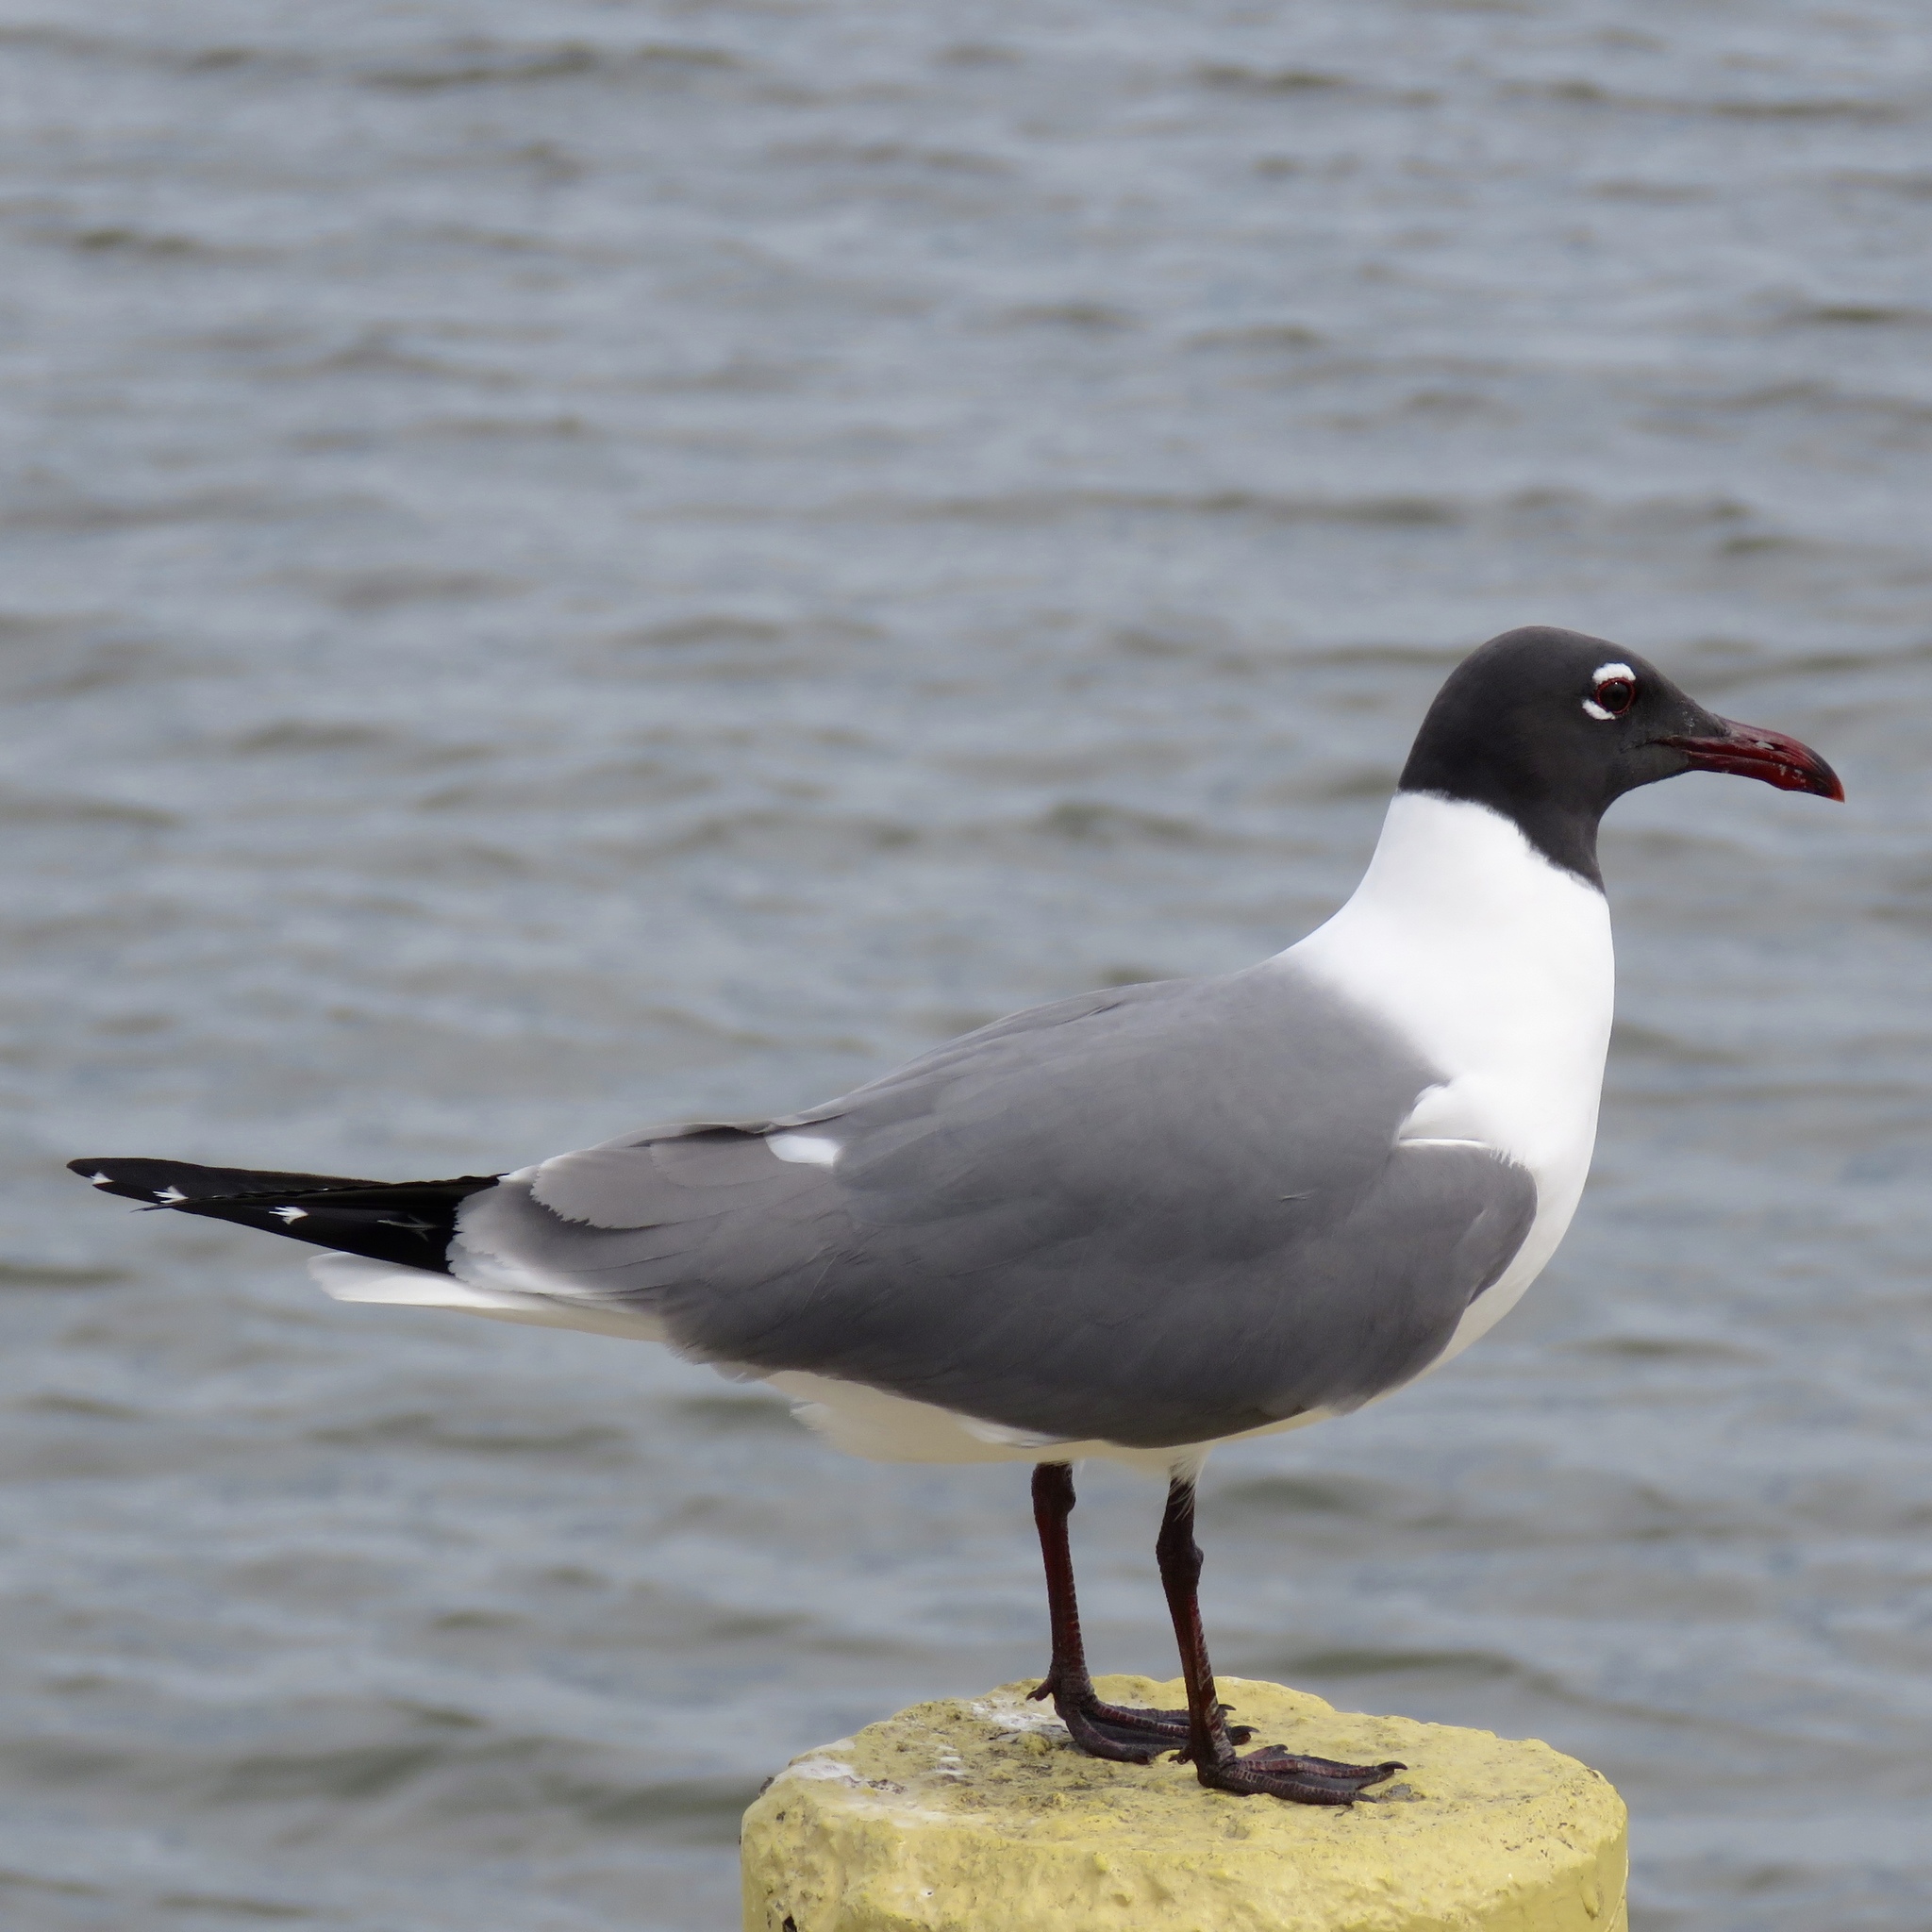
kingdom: Animalia
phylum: Chordata
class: Aves
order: Charadriiformes
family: Laridae
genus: Leucophaeus
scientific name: Leucophaeus atricilla
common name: Laughing gull
